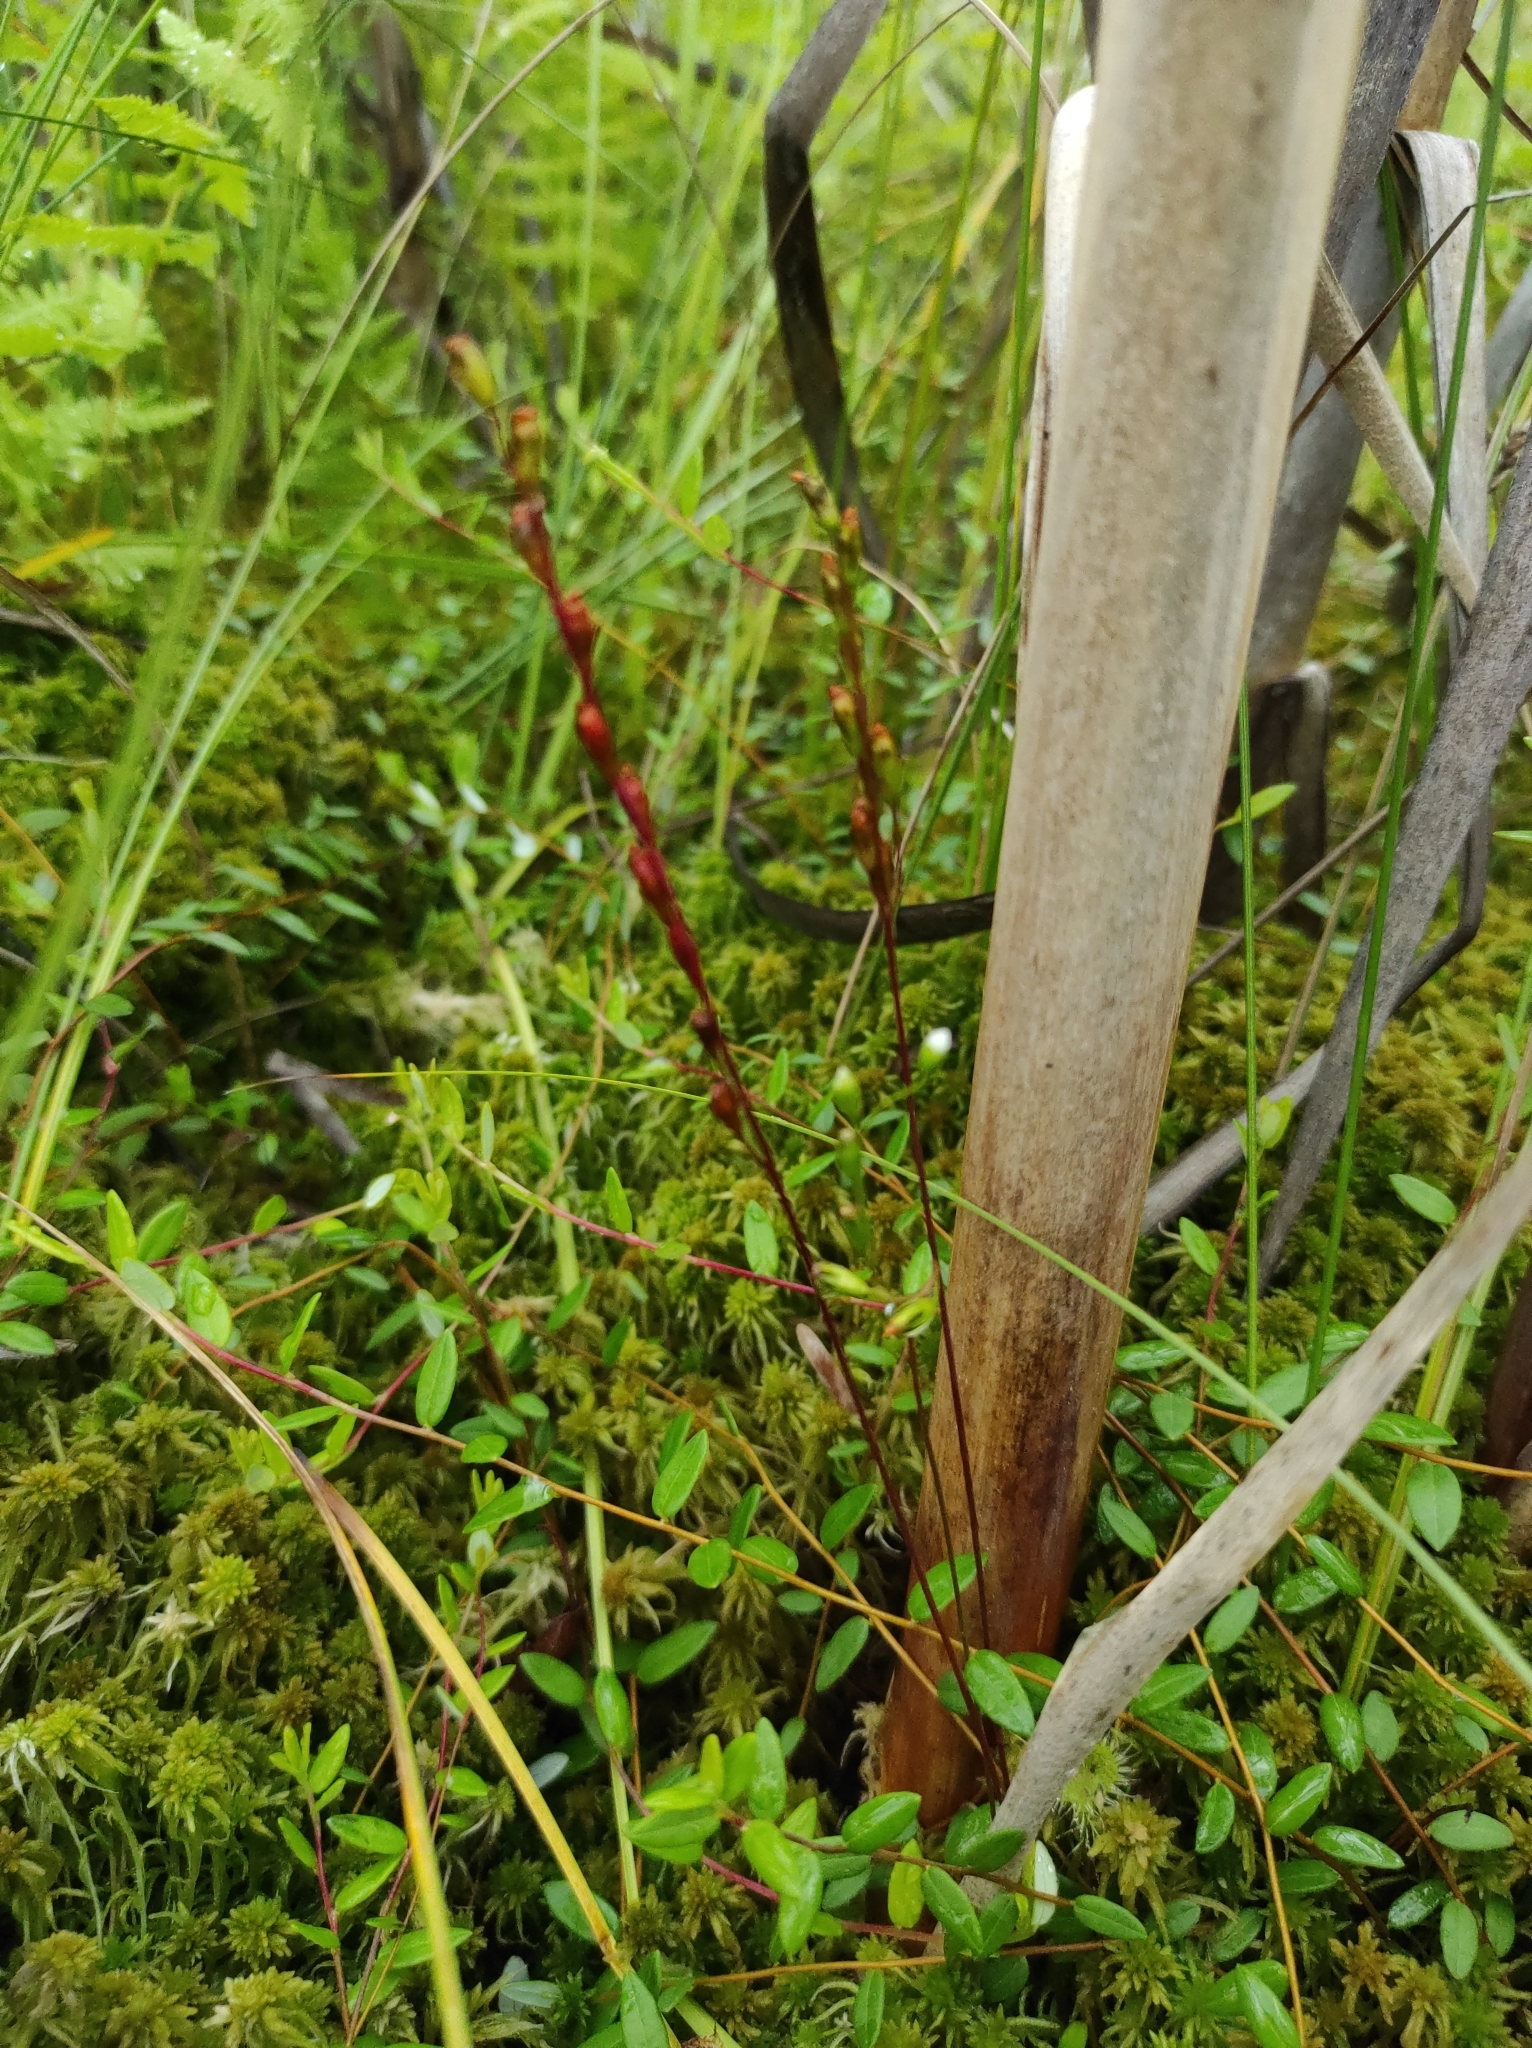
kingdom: Plantae
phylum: Tracheophyta
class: Magnoliopsida
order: Caryophyllales
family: Droseraceae
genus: Drosera
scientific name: Drosera rotundifolia
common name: Round-leaved sundew
